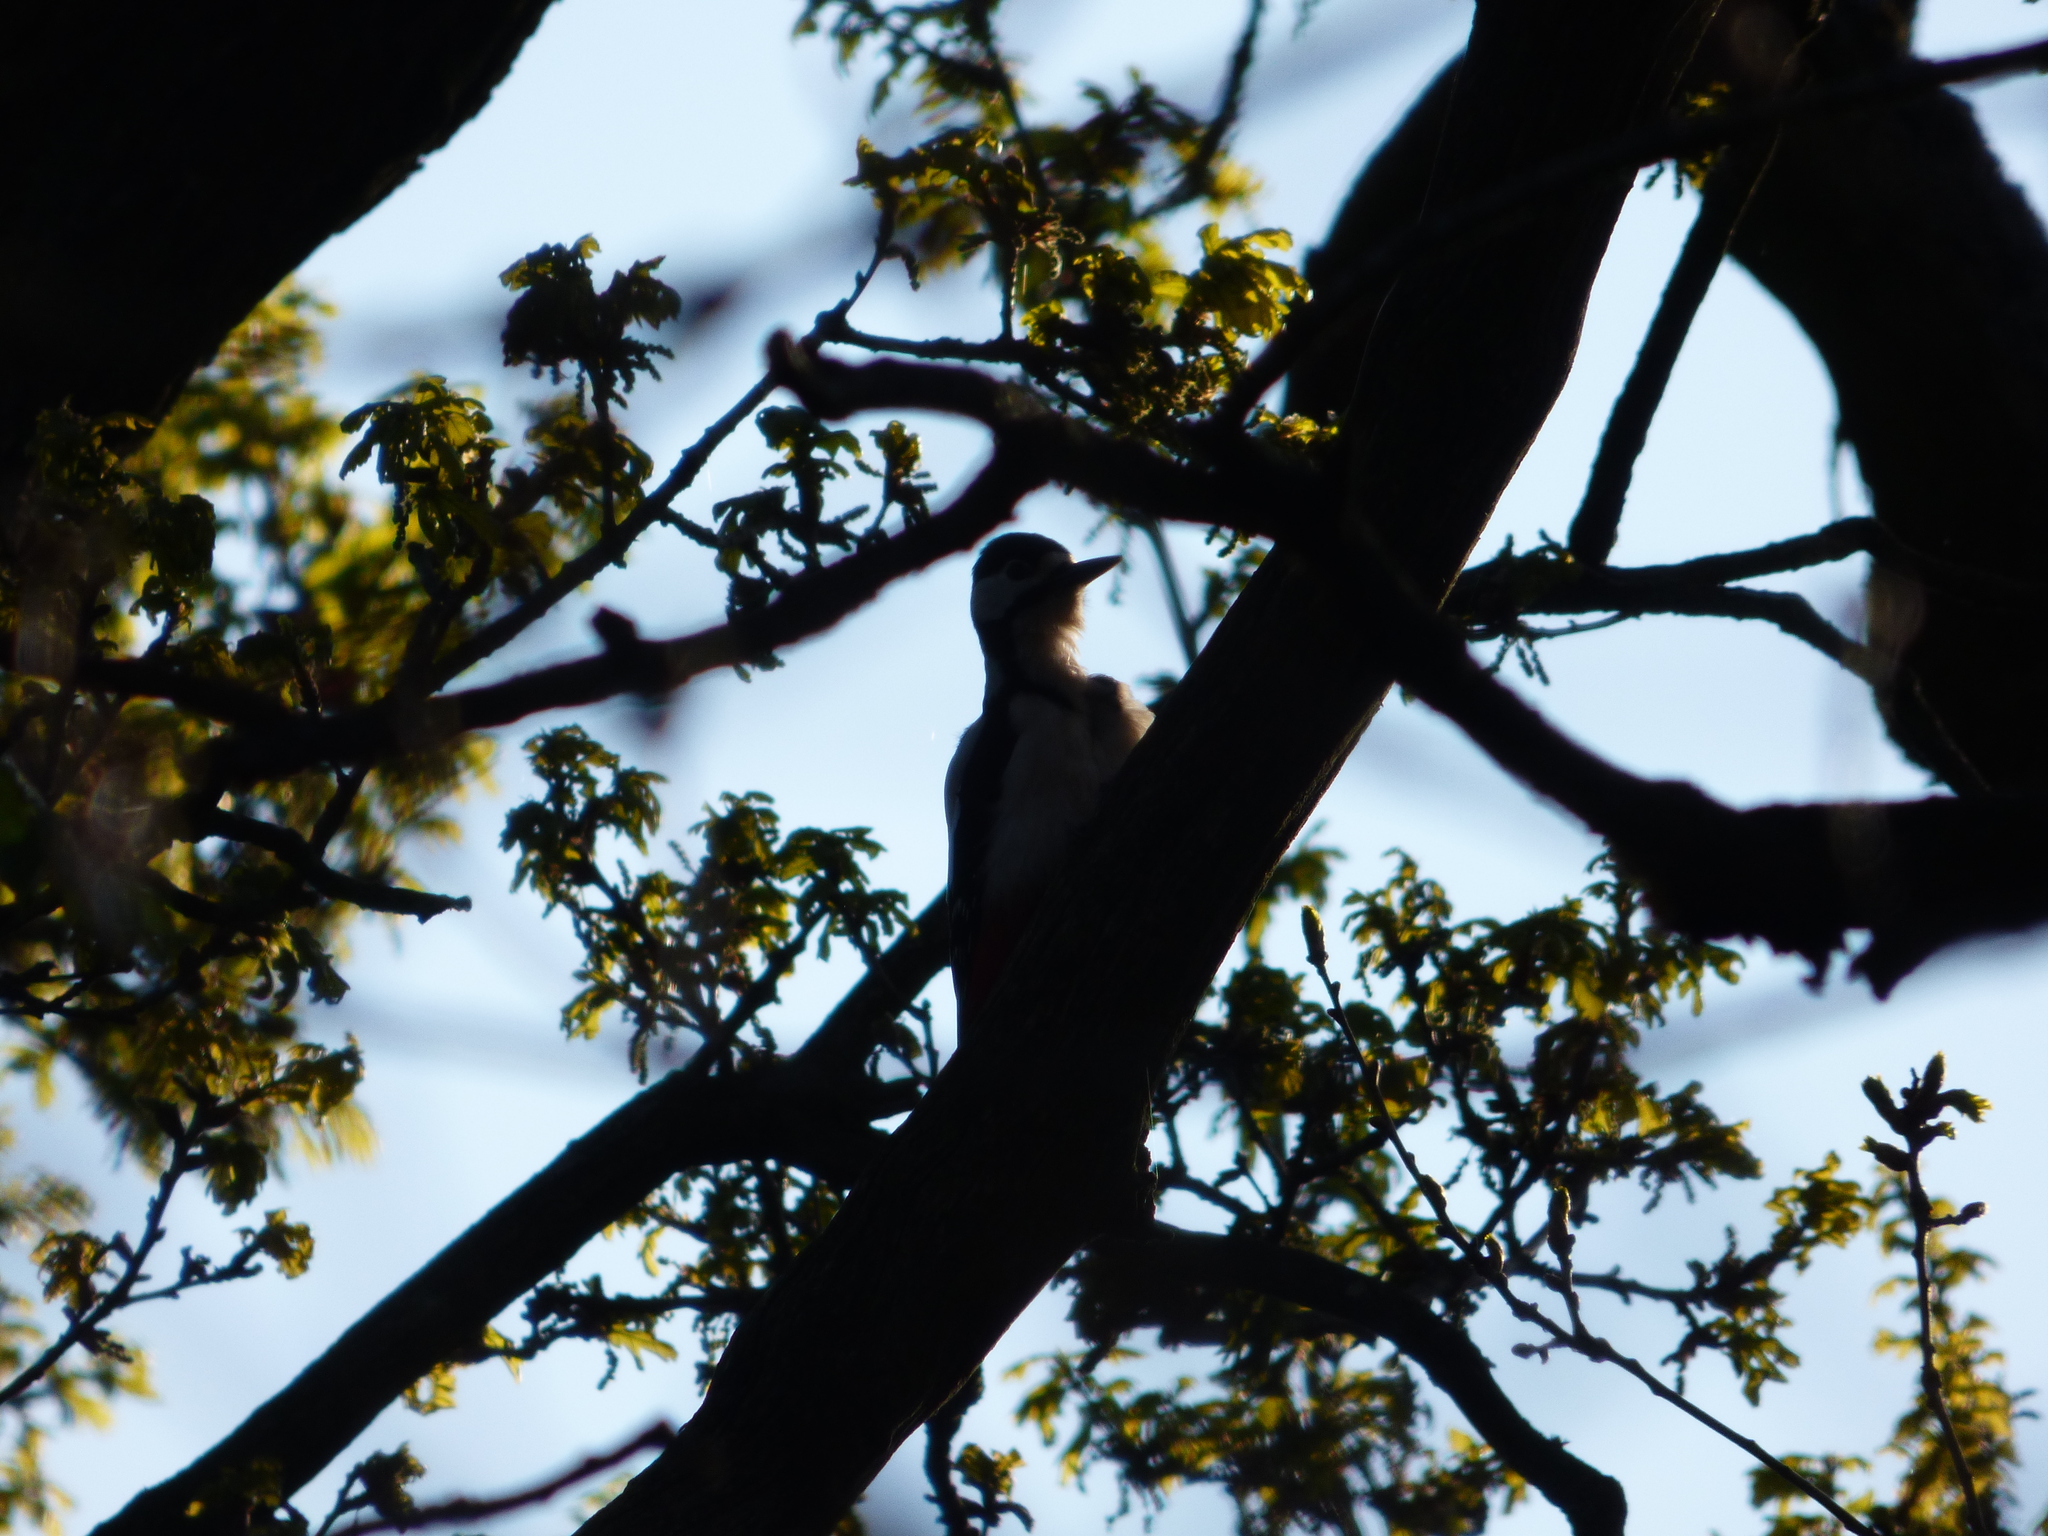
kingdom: Animalia
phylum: Chordata
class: Aves
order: Piciformes
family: Picidae
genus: Dendrocopos
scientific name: Dendrocopos major
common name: Great spotted woodpecker
